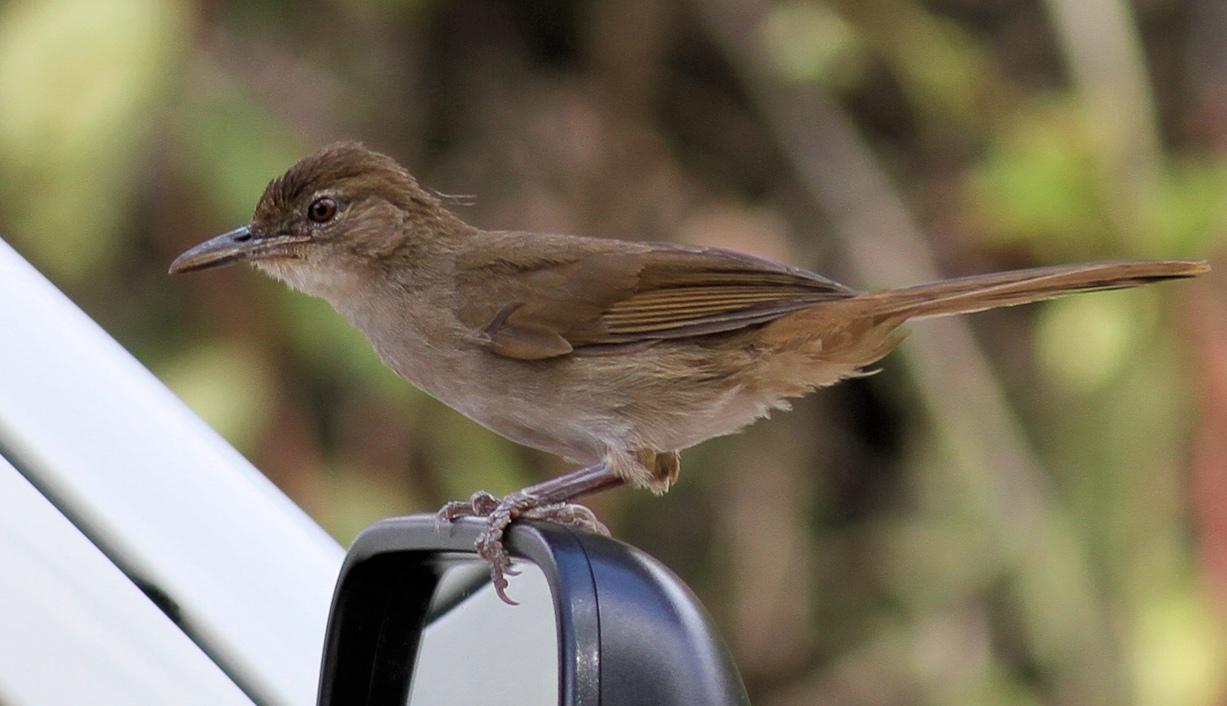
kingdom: Animalia
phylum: Chordata
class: Aves
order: Passeriformes
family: Pycnonotidae
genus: Phyllastrephus
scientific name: Phyllastrephus terrestris
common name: Terrestrial brownbul
